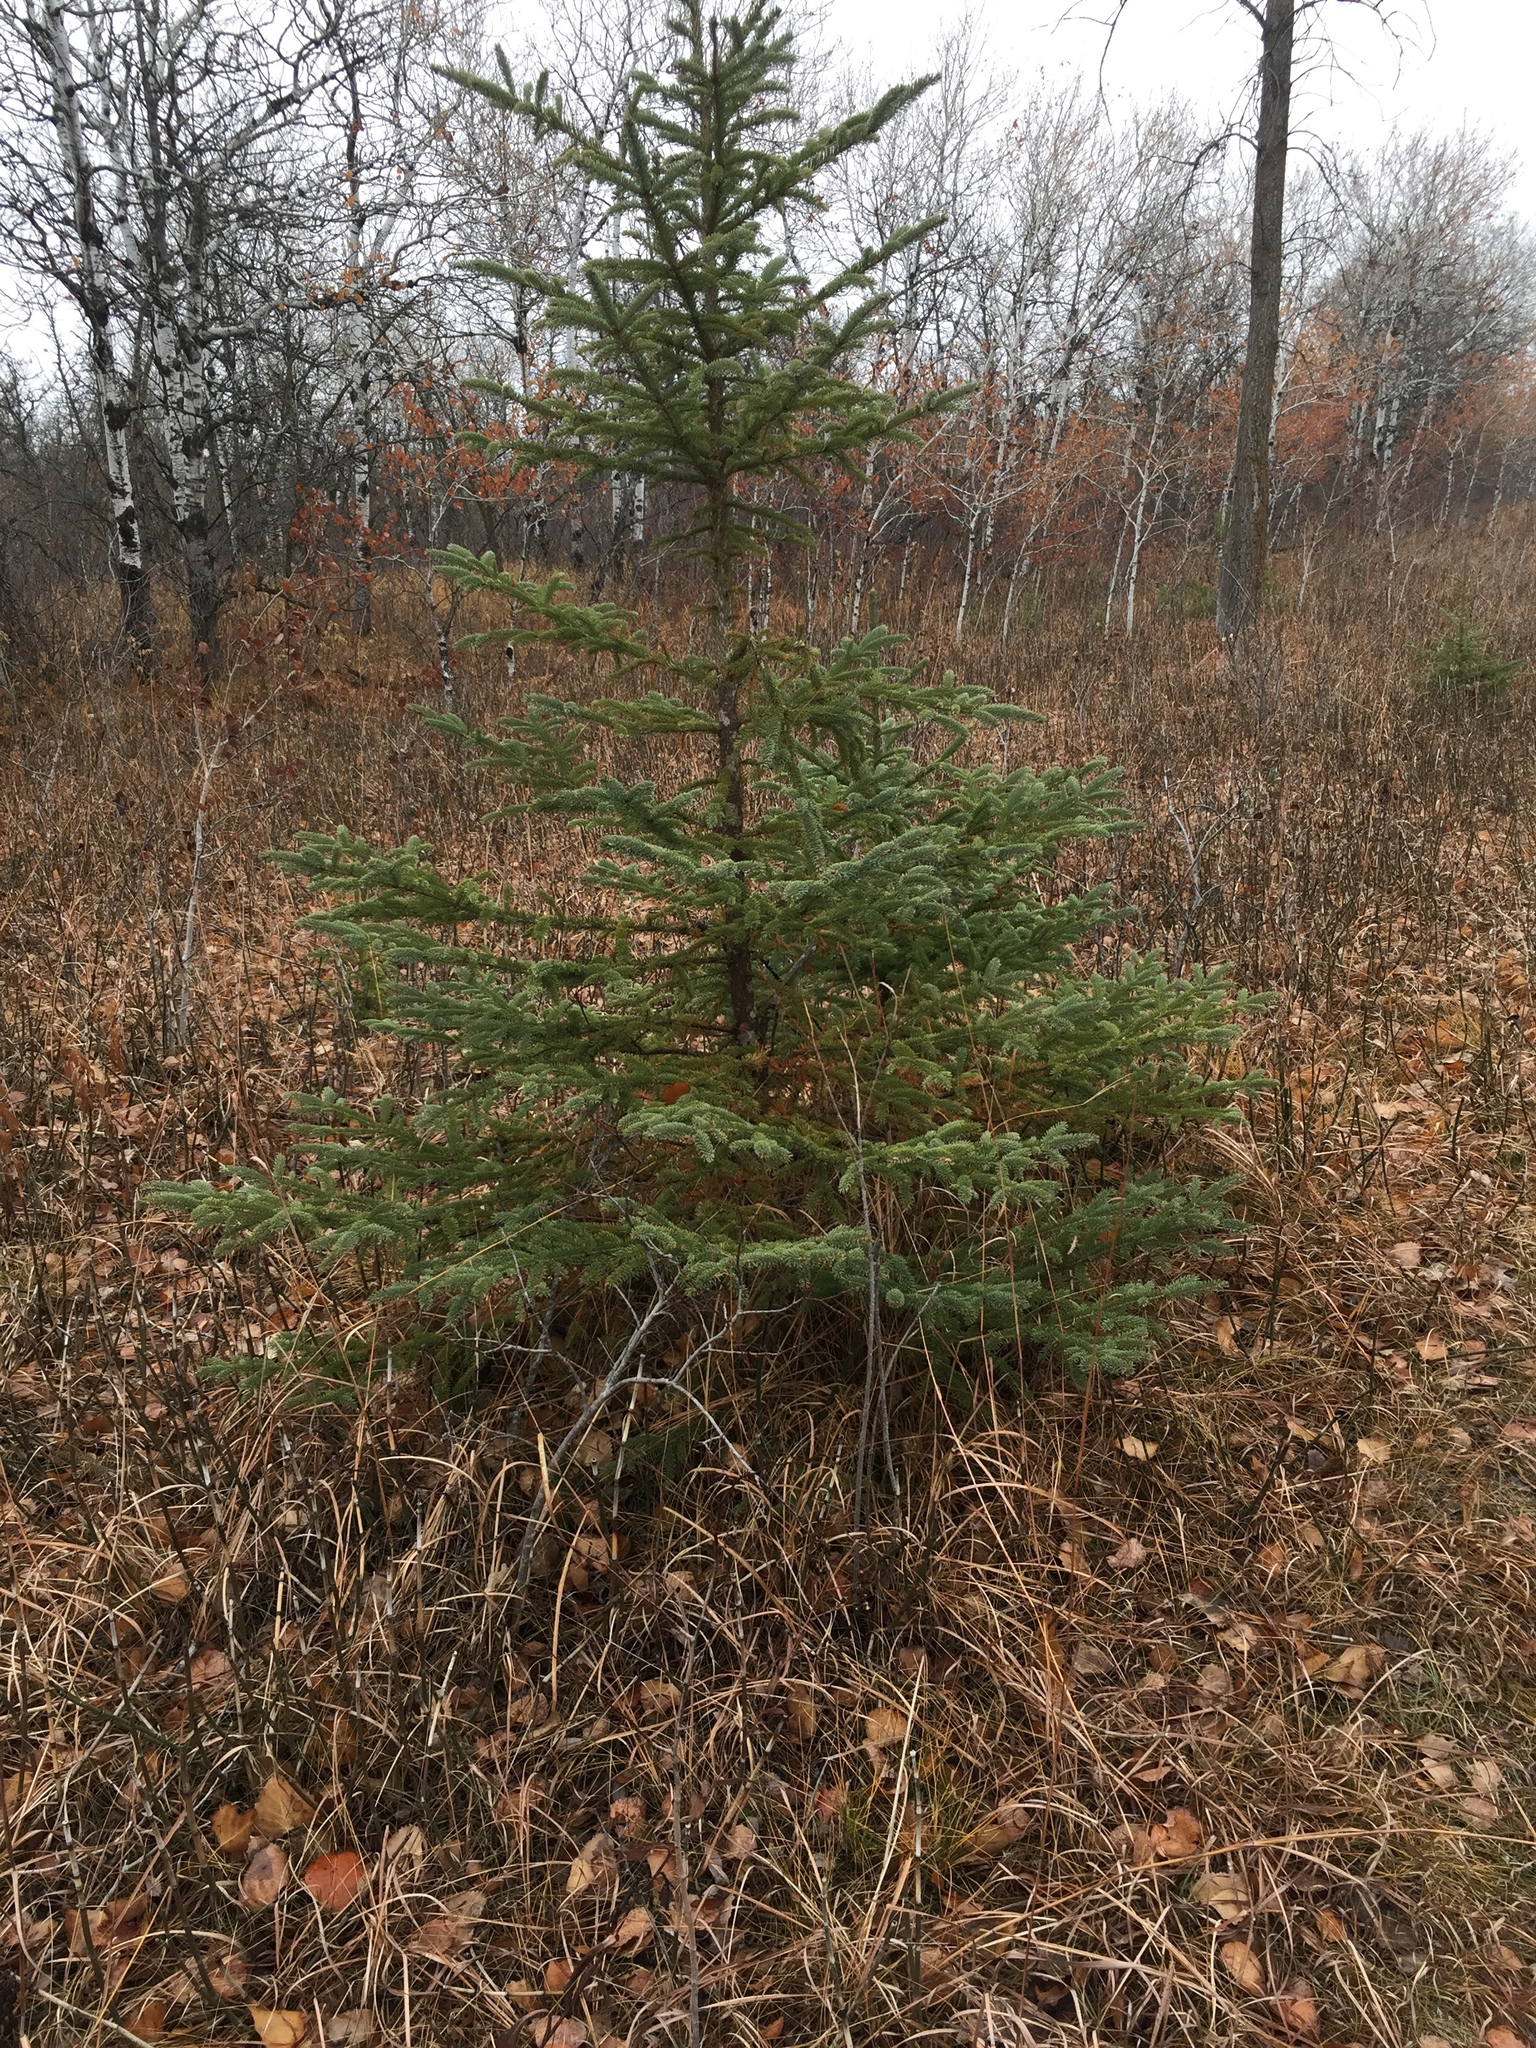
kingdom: Plantae
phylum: Tracheophyta
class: Pinopsida
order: Pinales
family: Pinaceae
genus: Picea
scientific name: Picea glauca
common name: White spruce
